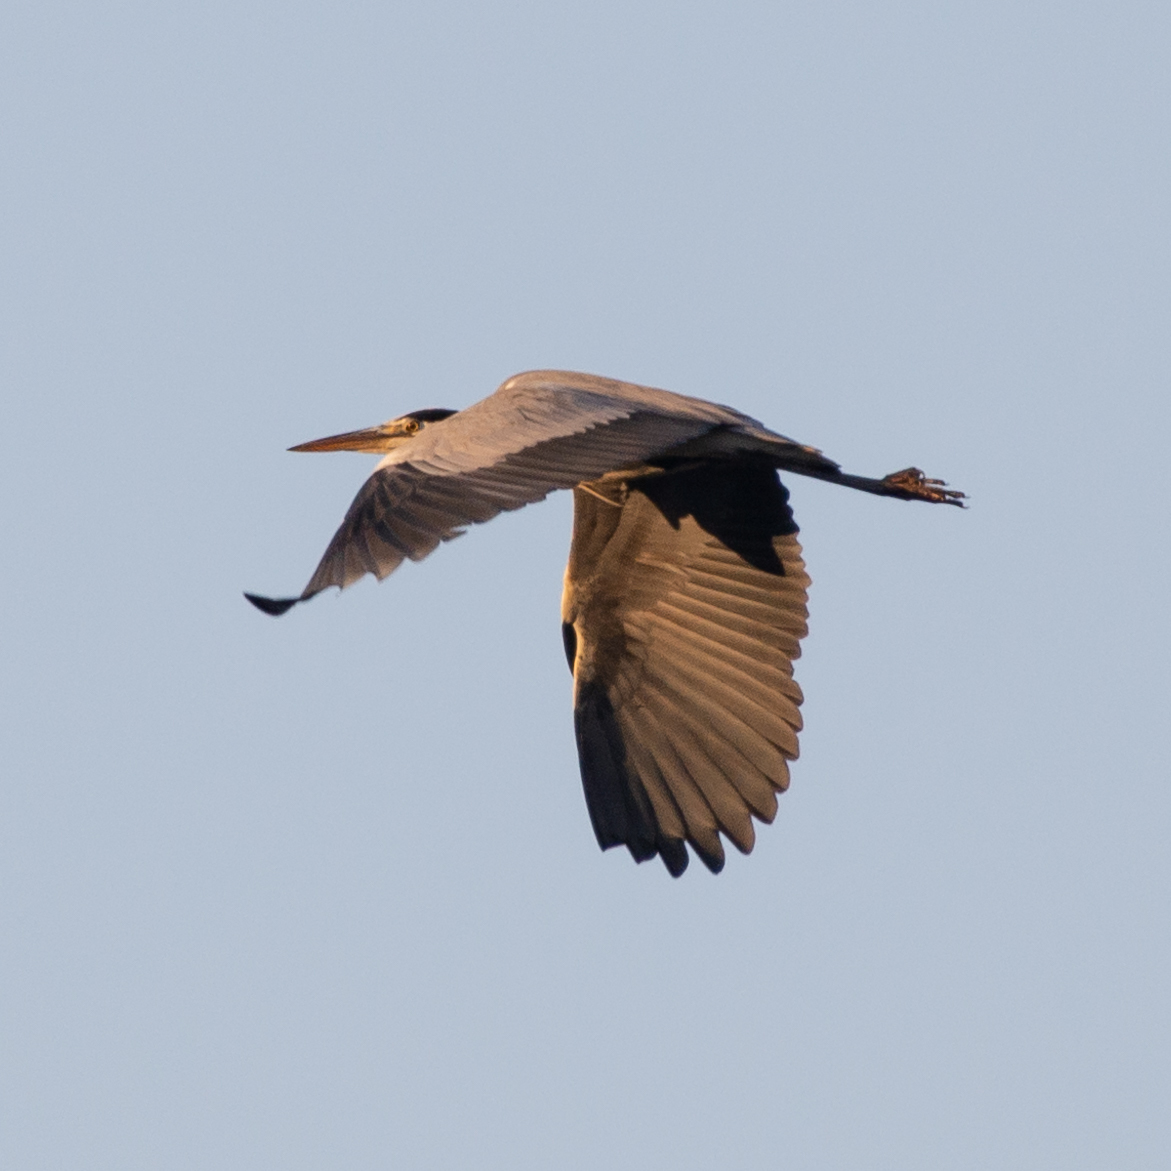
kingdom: Animalia
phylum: Chordata
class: Aves
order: Pelecaniformes
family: Ardeidae
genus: Ardea
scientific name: Ardea cinerea
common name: Grey heron
